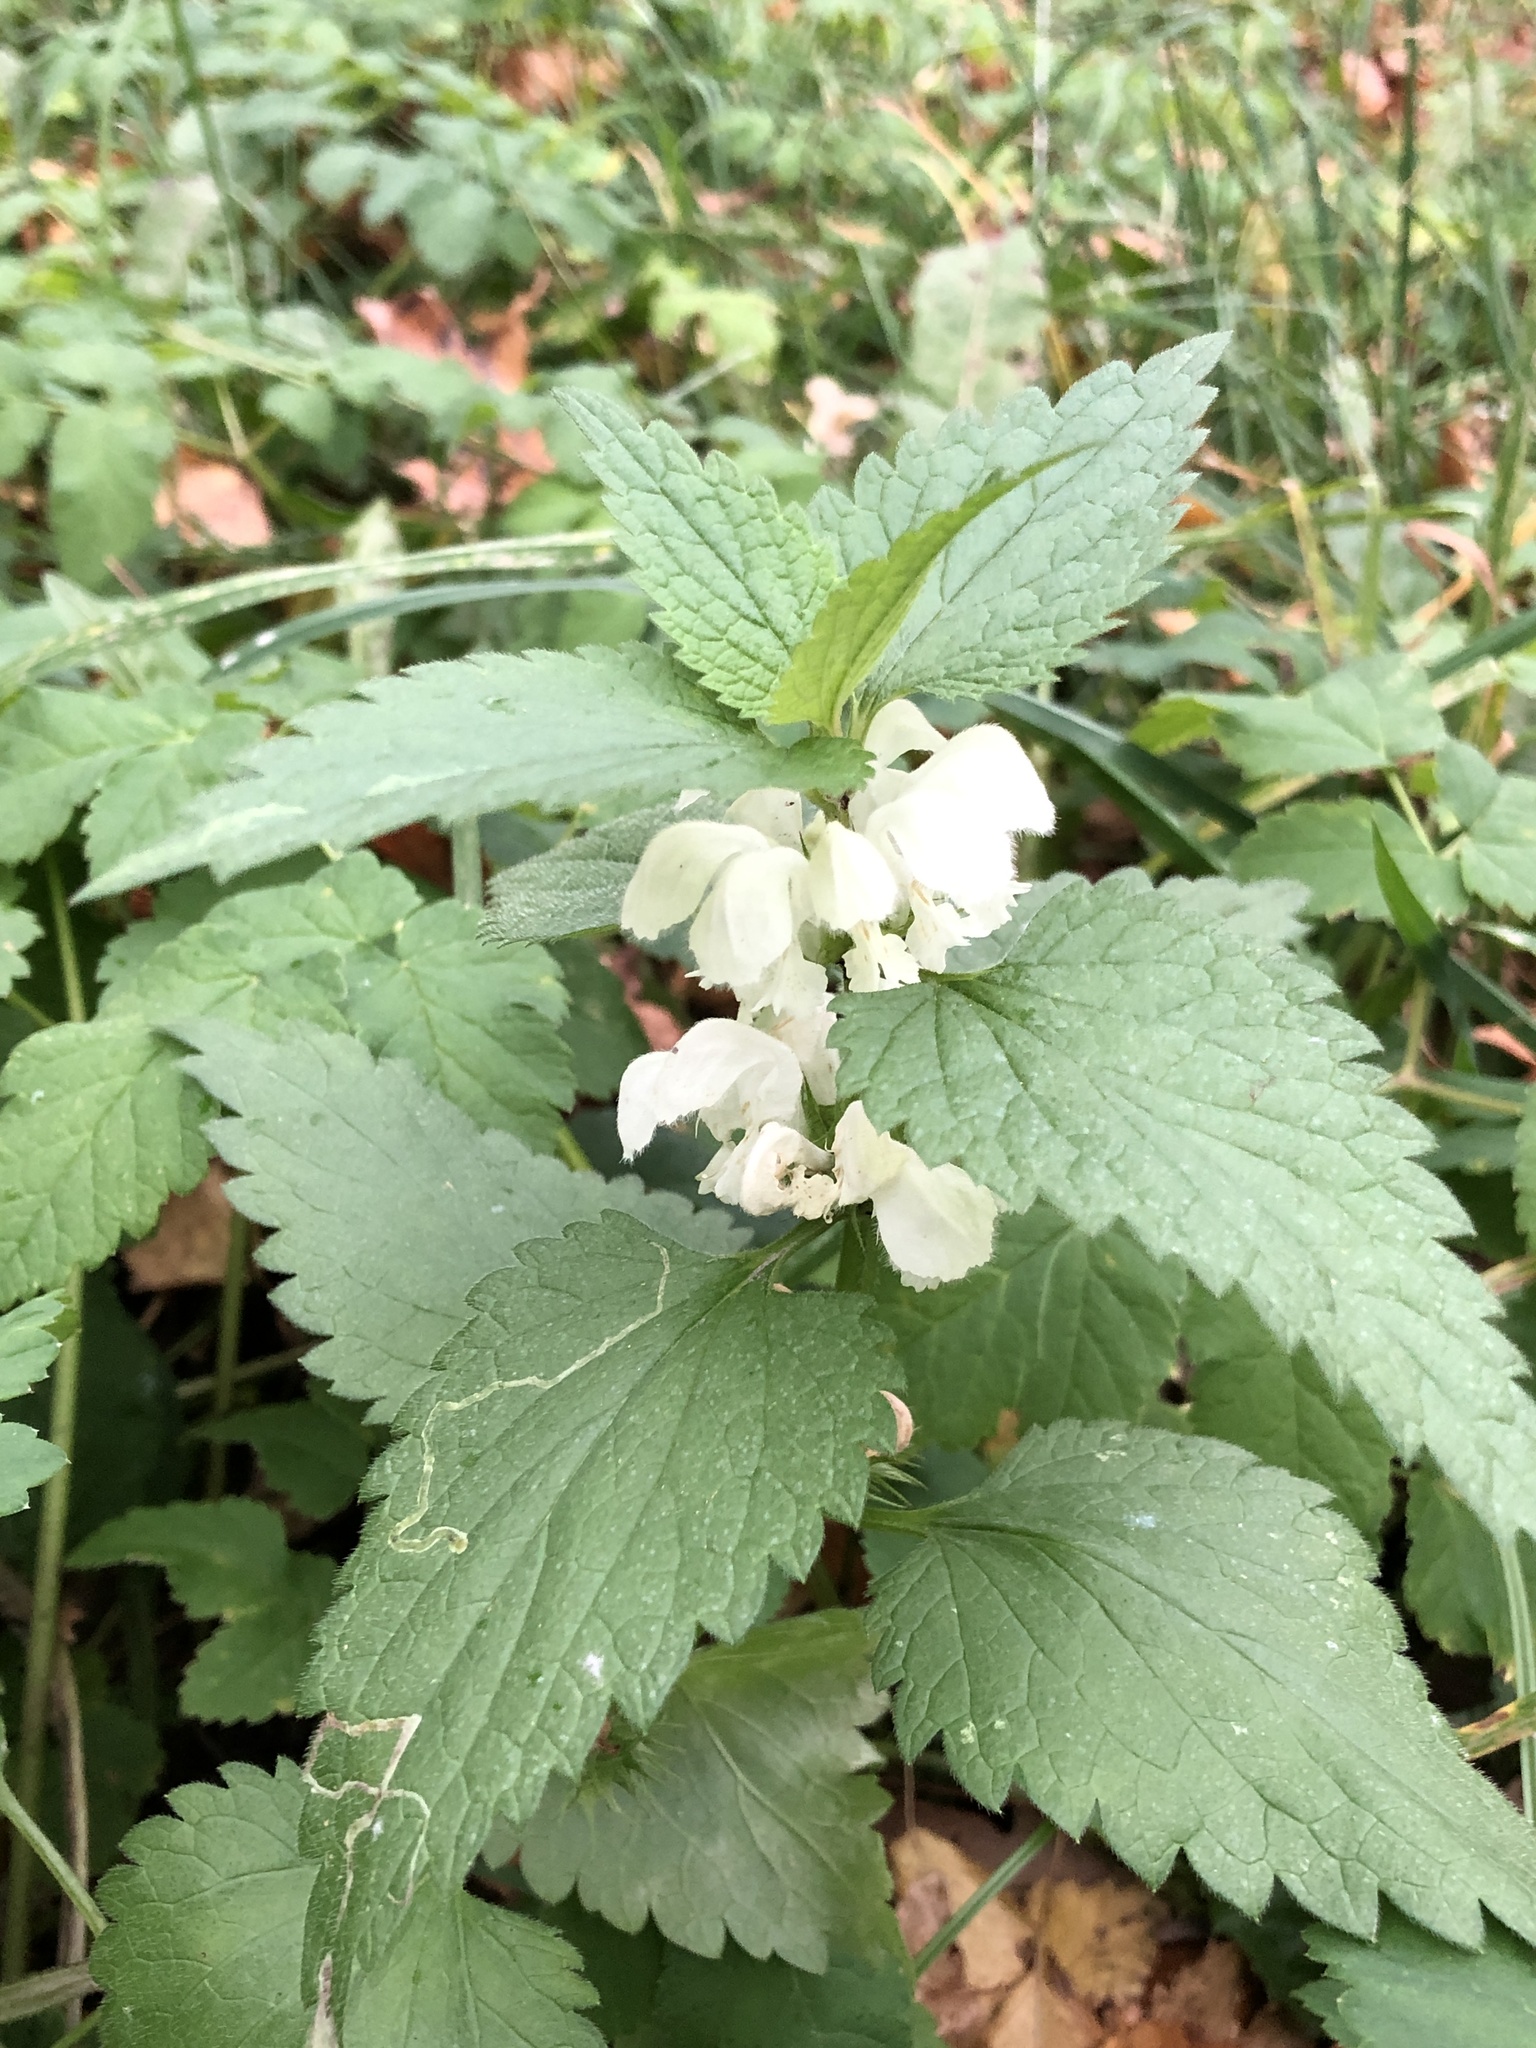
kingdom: Plantae
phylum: Tracheophyta
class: Magnoliopsida
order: Lamiales
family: Lamiaceae
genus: Lamium
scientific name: Lamium album
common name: White dead-nettle
